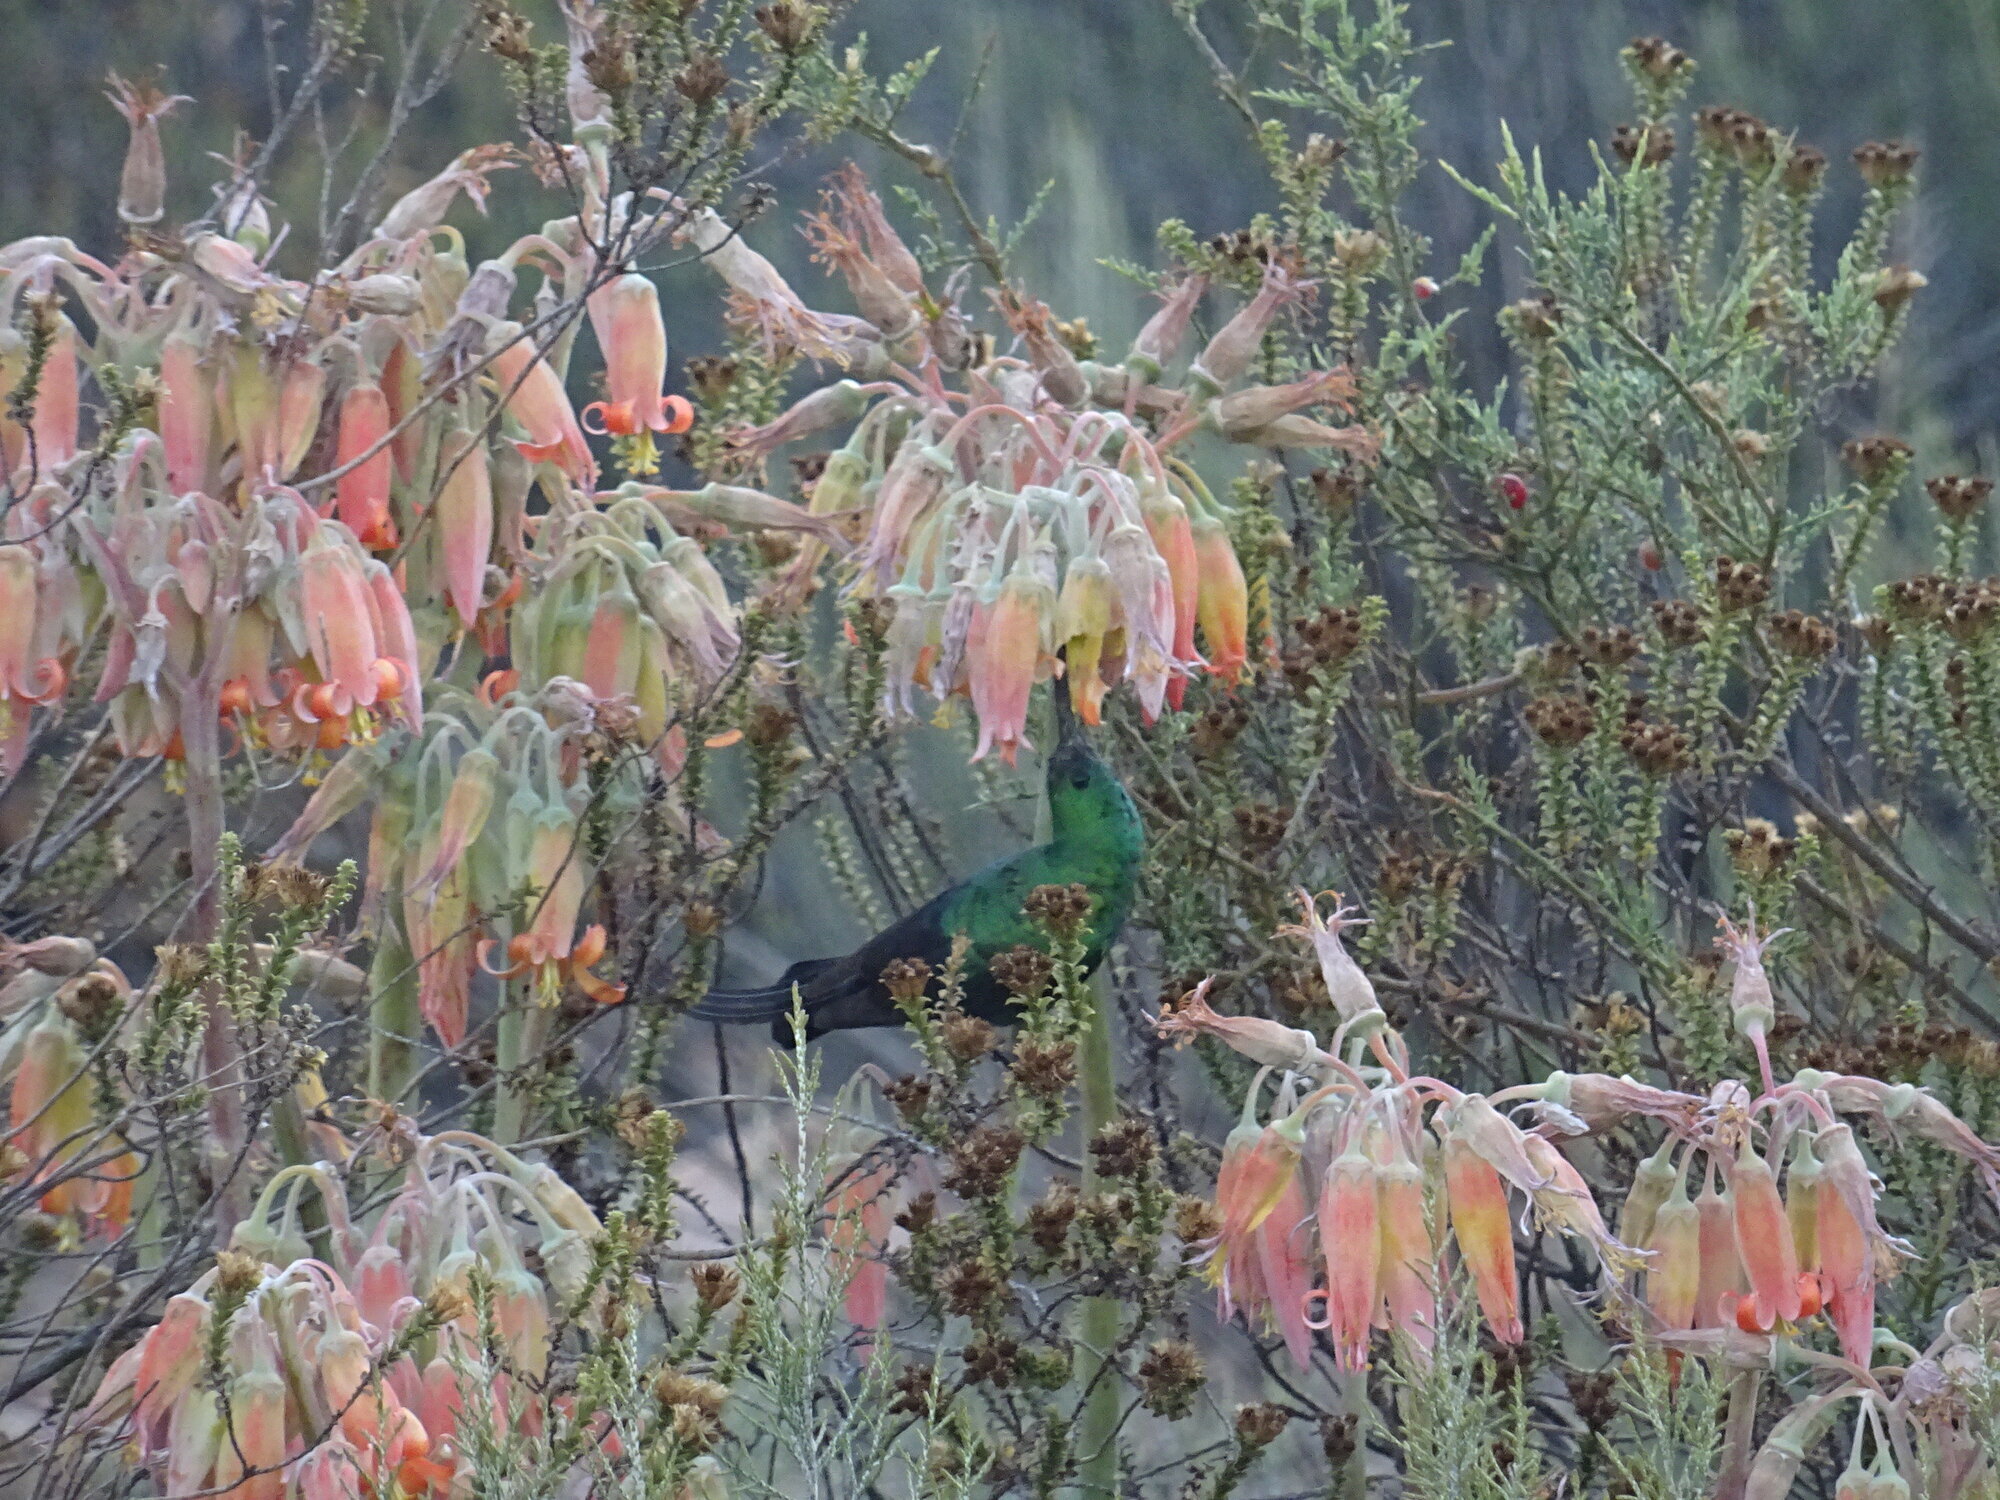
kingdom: Animalia
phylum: Chordata
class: Aves
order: Passeriformes
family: Nectariniidae
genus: Nectarinia
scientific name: Nectarinia famosa
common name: Malachite sunbird
